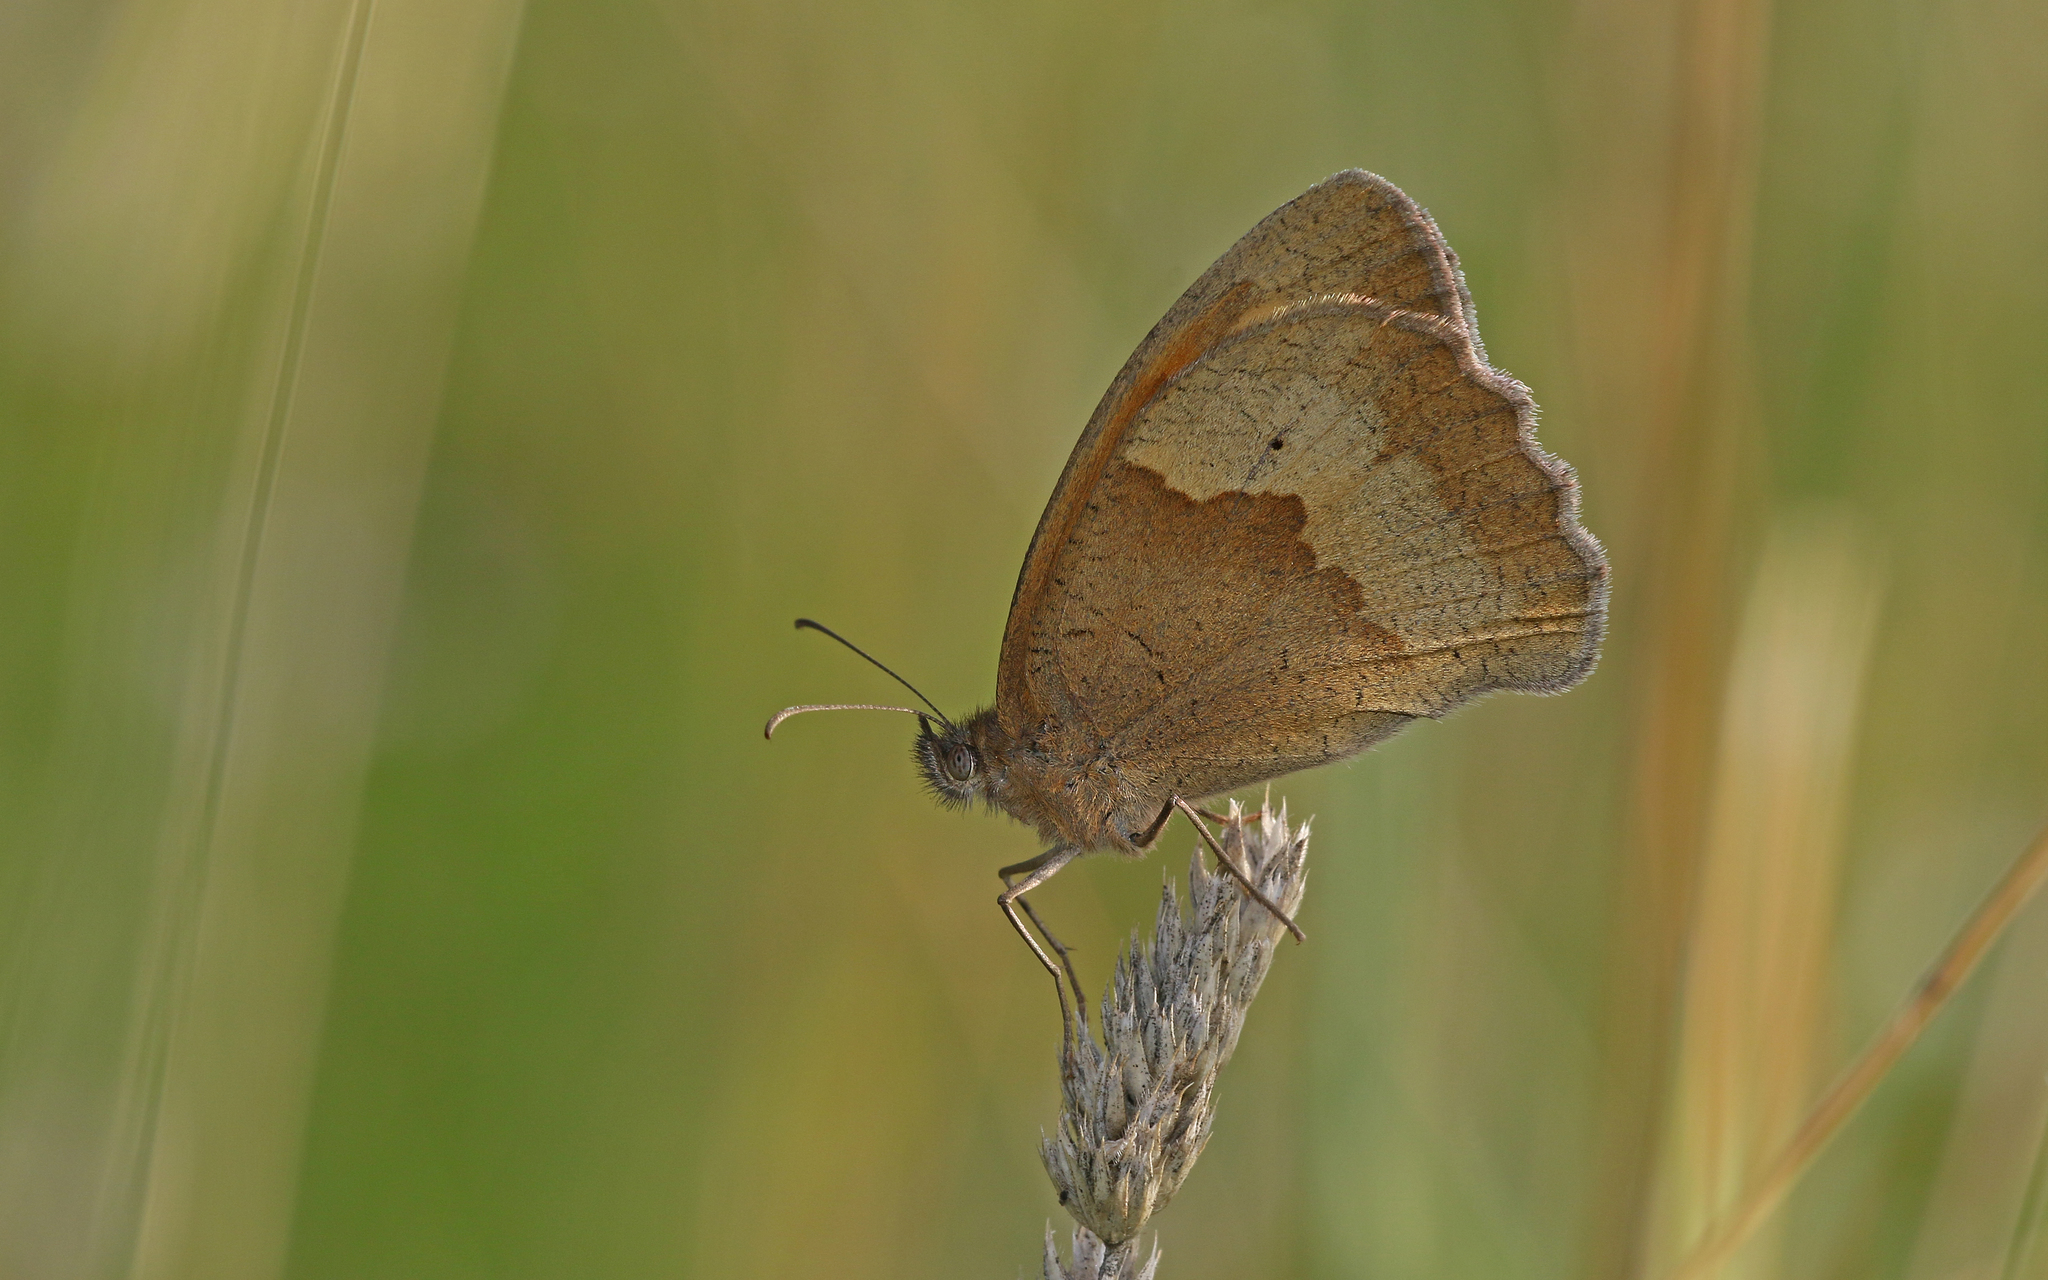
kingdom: Animalia
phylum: Arthropoda
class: Insecta
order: Lepidoptera
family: Nymphalidae
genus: Maniola
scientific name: Maniola jurtina
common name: Meadow brown
